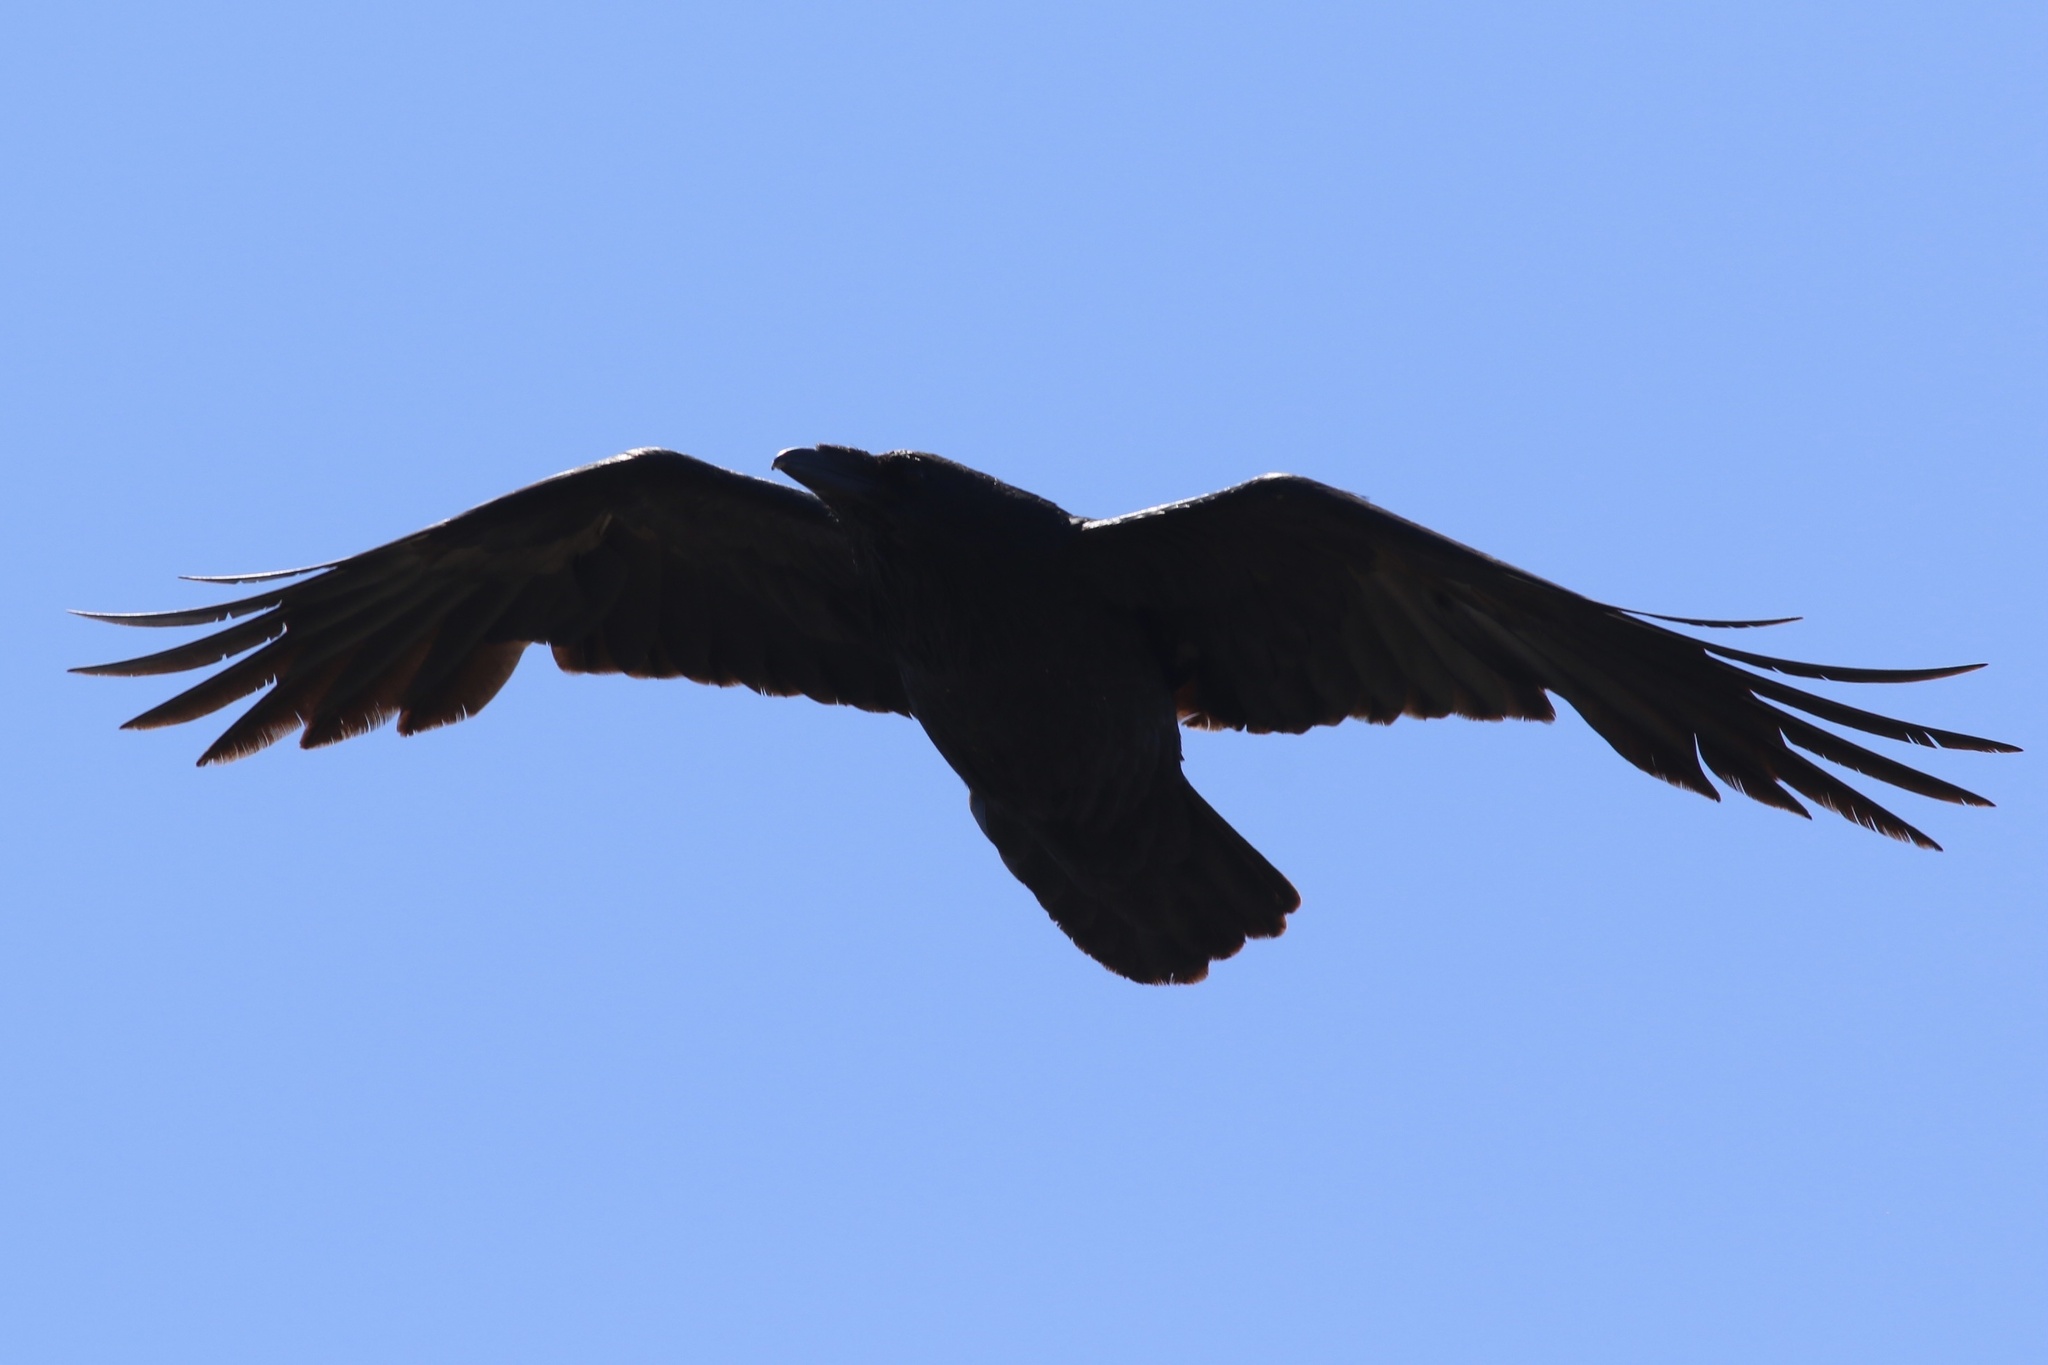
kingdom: Animalia
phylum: Chordata
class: Aves
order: Passeriformes
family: Corvidae
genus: Corvus
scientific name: Corvus corax
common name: Common raven
